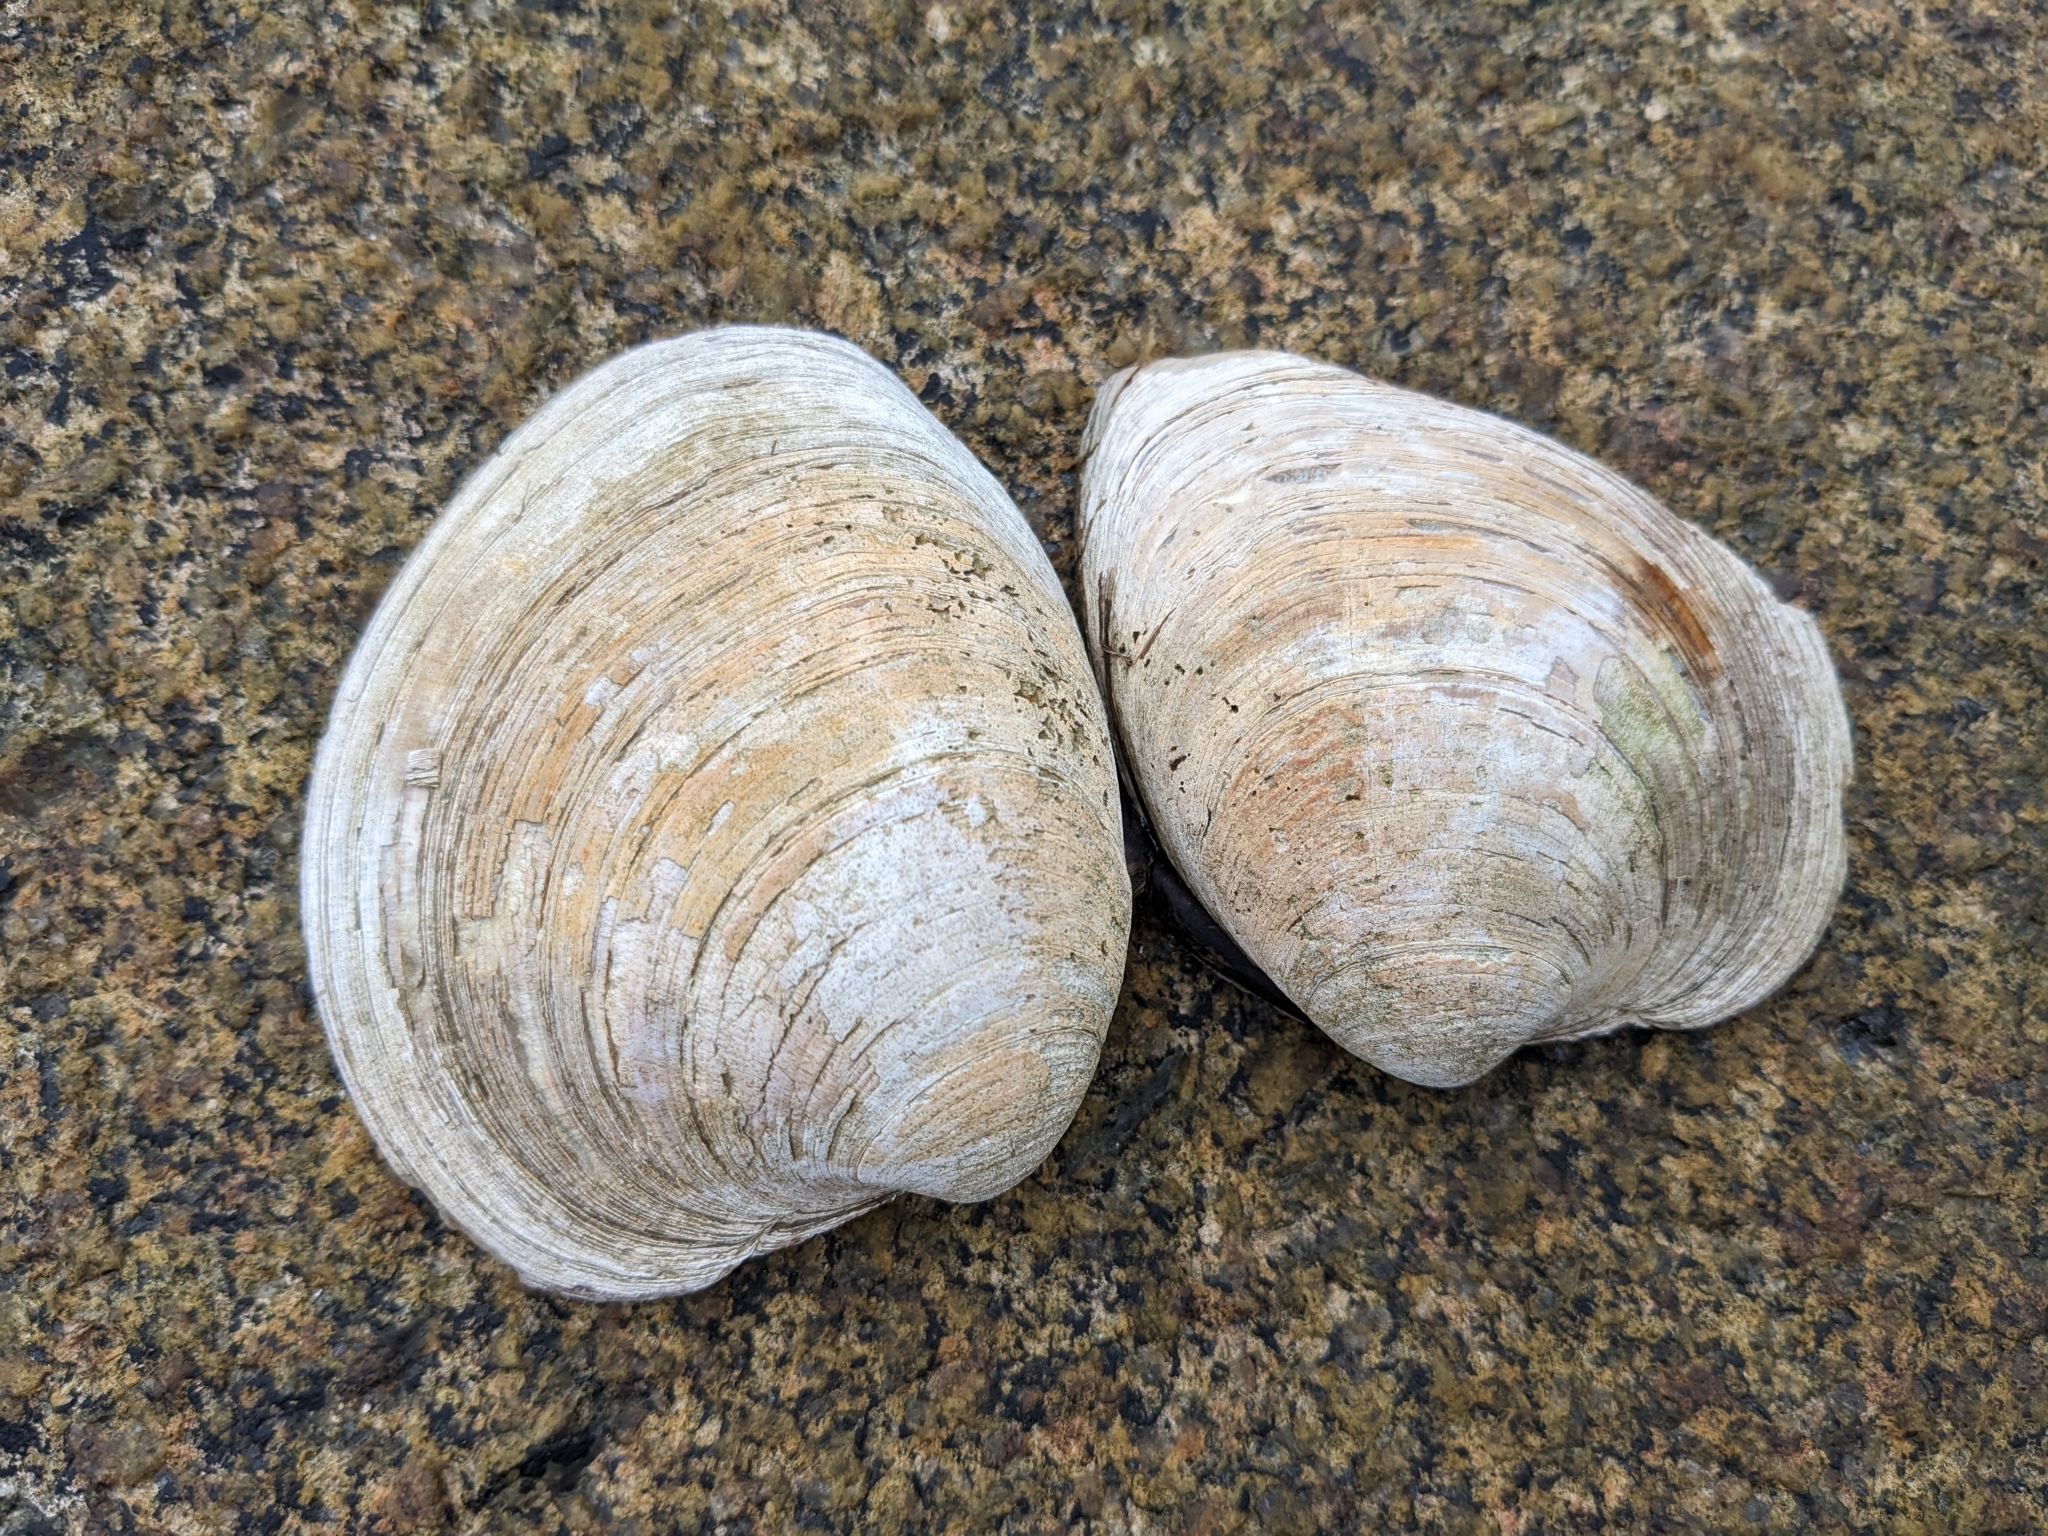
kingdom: Animalia
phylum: Mollusca
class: Bivalvia
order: Venerida
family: Veneridae
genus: Mercenaria
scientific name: Mercenaria mercenaria
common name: American hard-shelled clam
